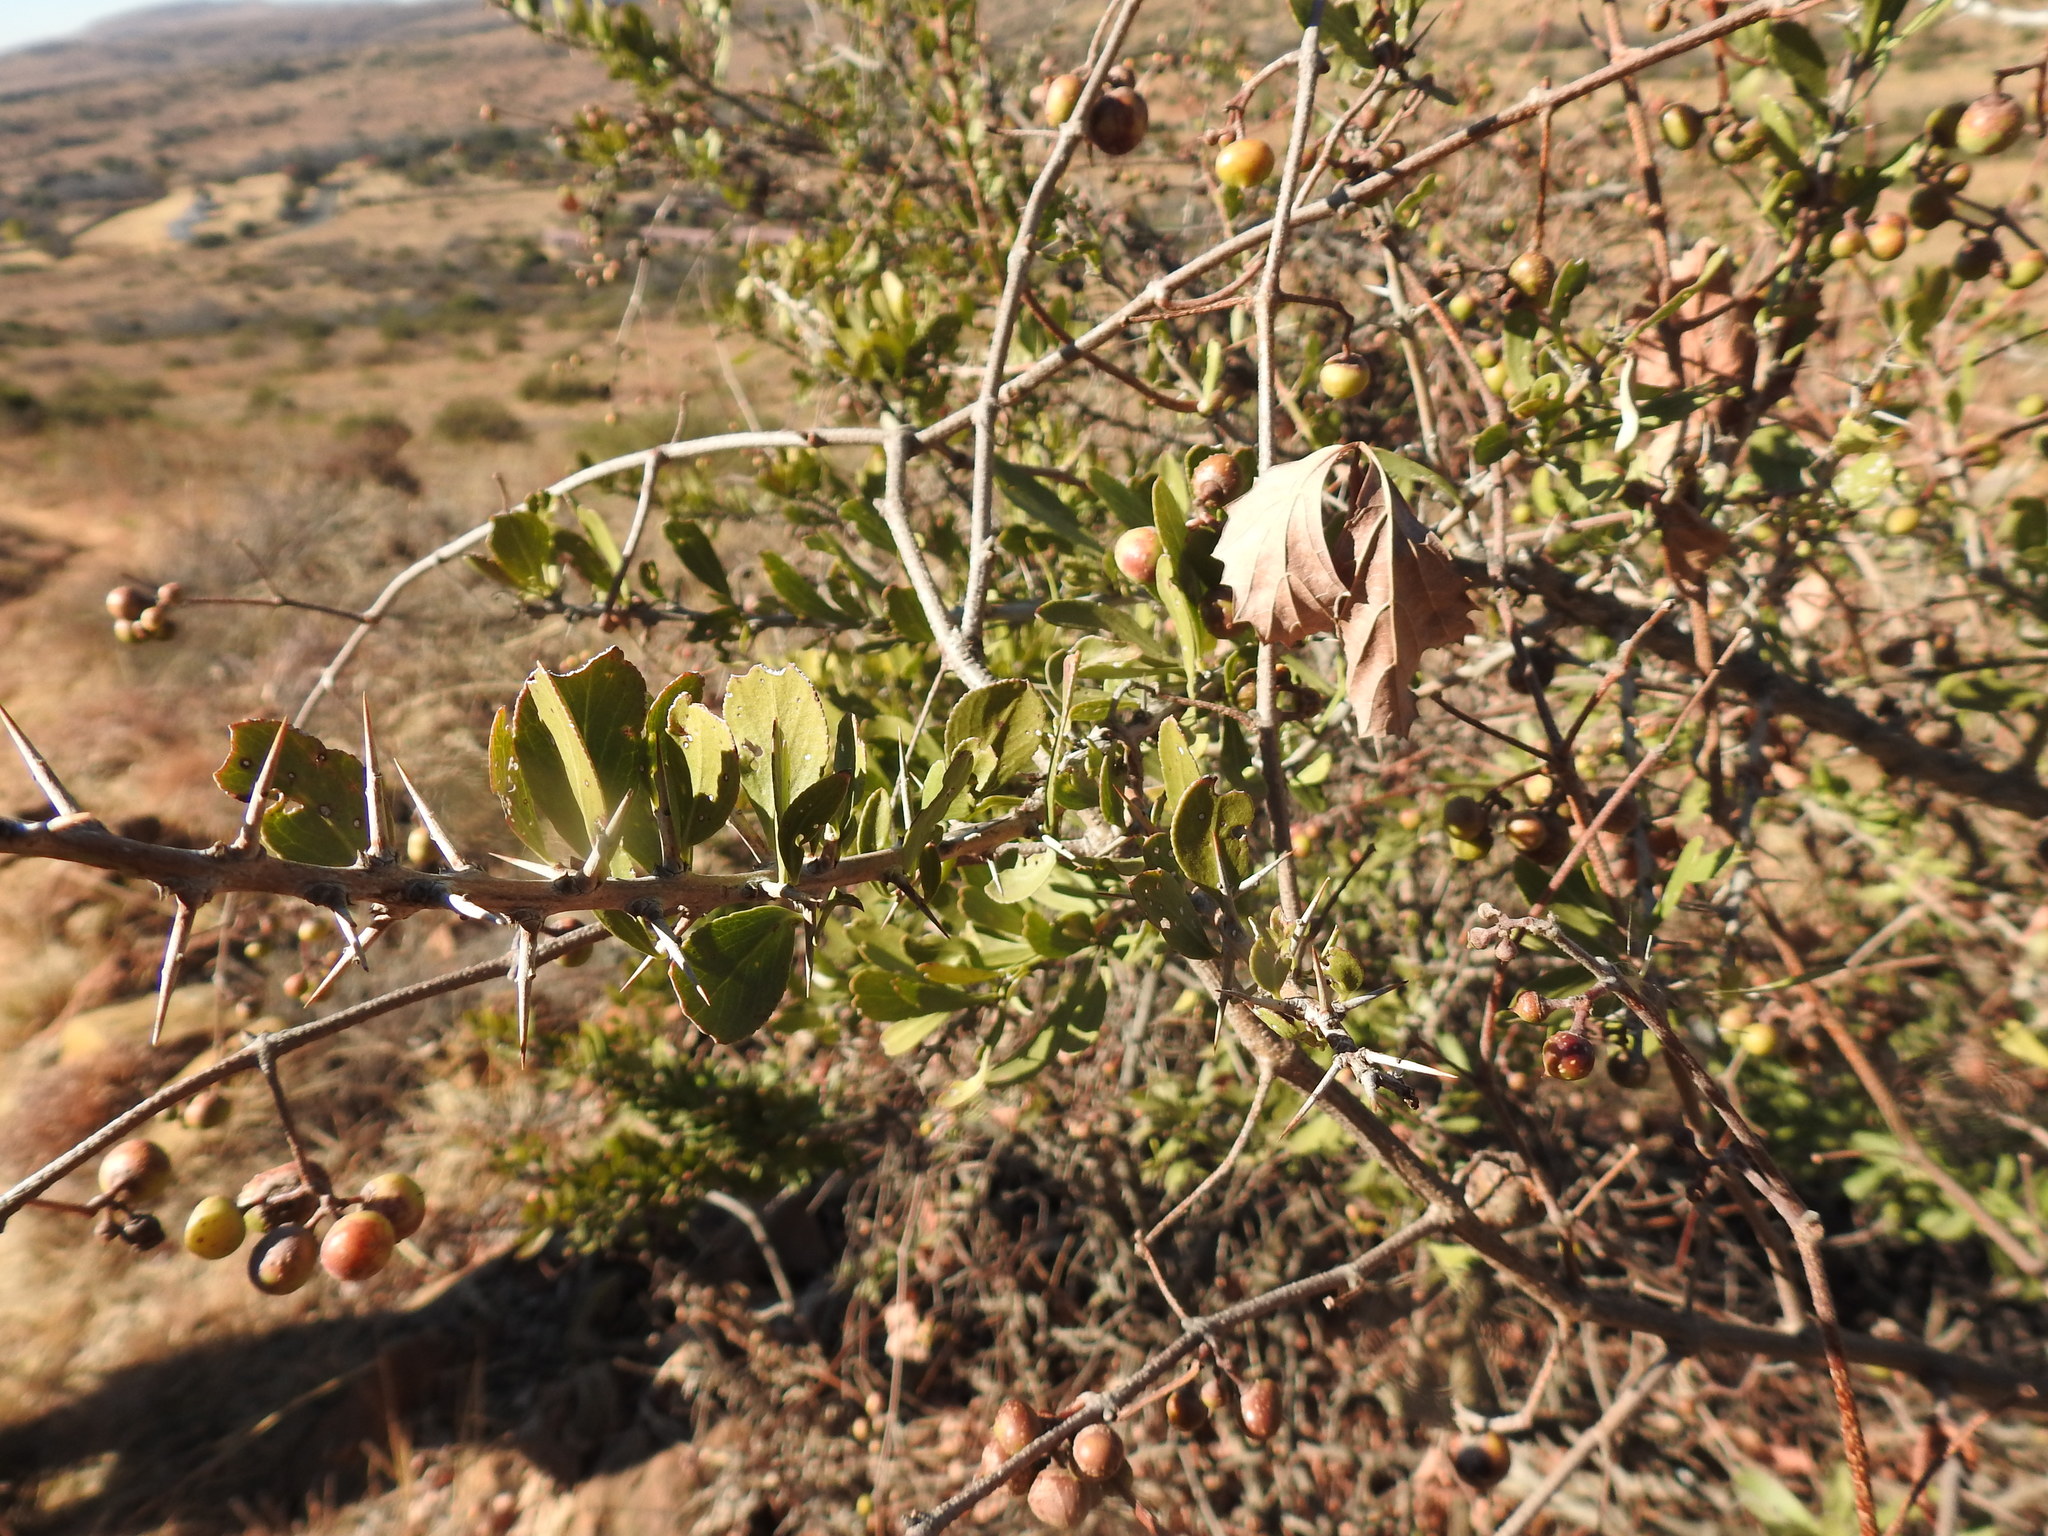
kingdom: Plantae
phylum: Tracheophyta
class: Magnoliopsida
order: Vitales
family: Vitaceae
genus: Rhoicissus
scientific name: Rhoicissus tridentata
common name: Common forest grape
